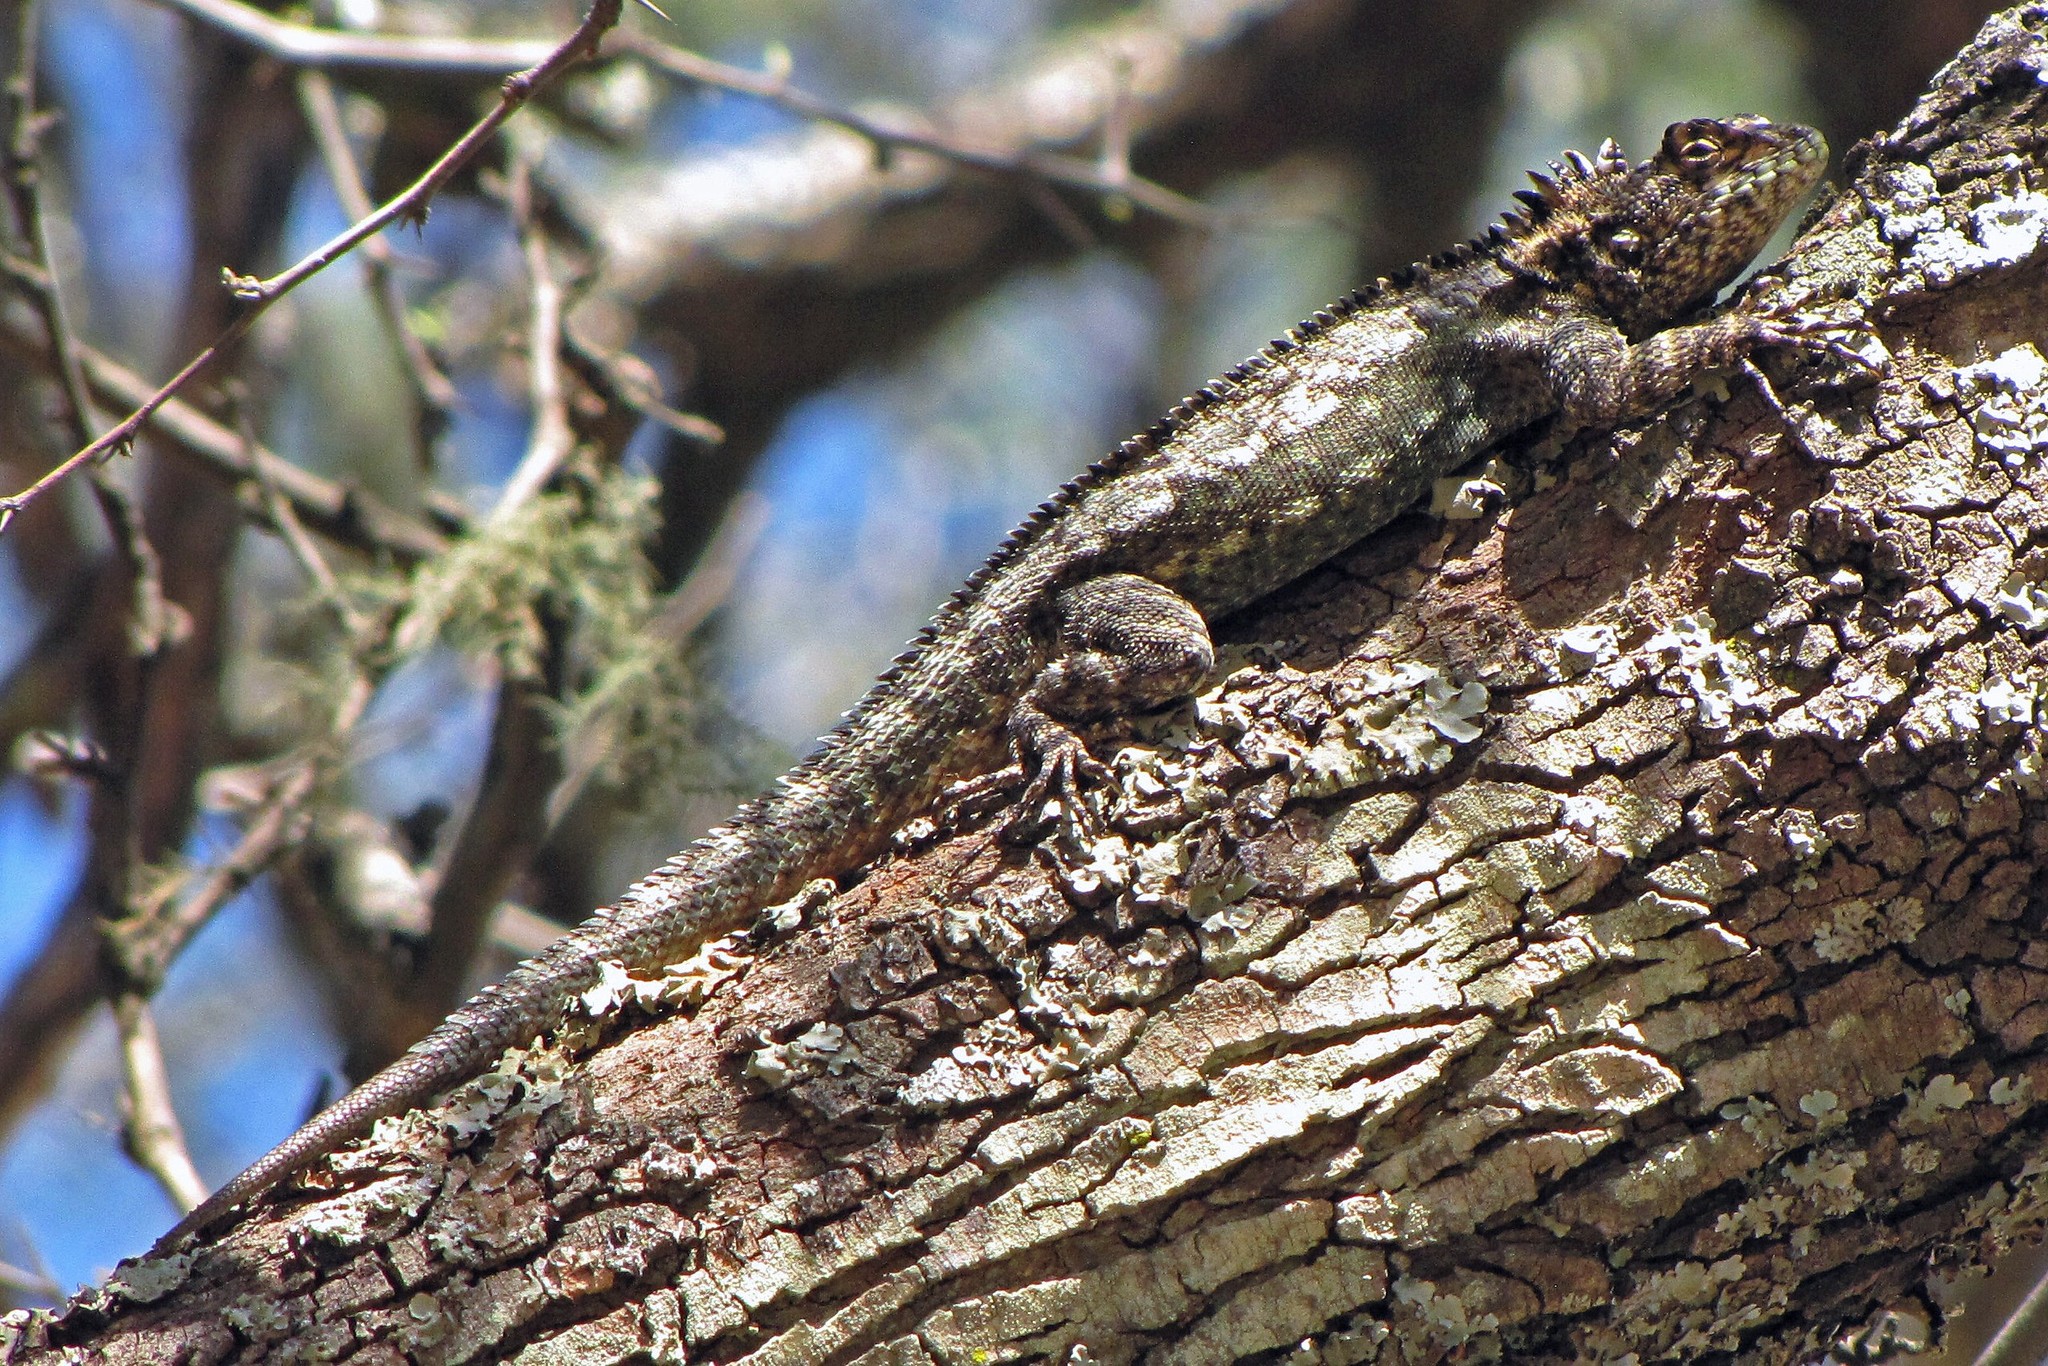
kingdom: Animalia
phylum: Chordata
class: Squamata
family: Tropiduridae
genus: Tropidurus
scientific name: Tropidurus spinulosus
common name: Spiny lava lizard
